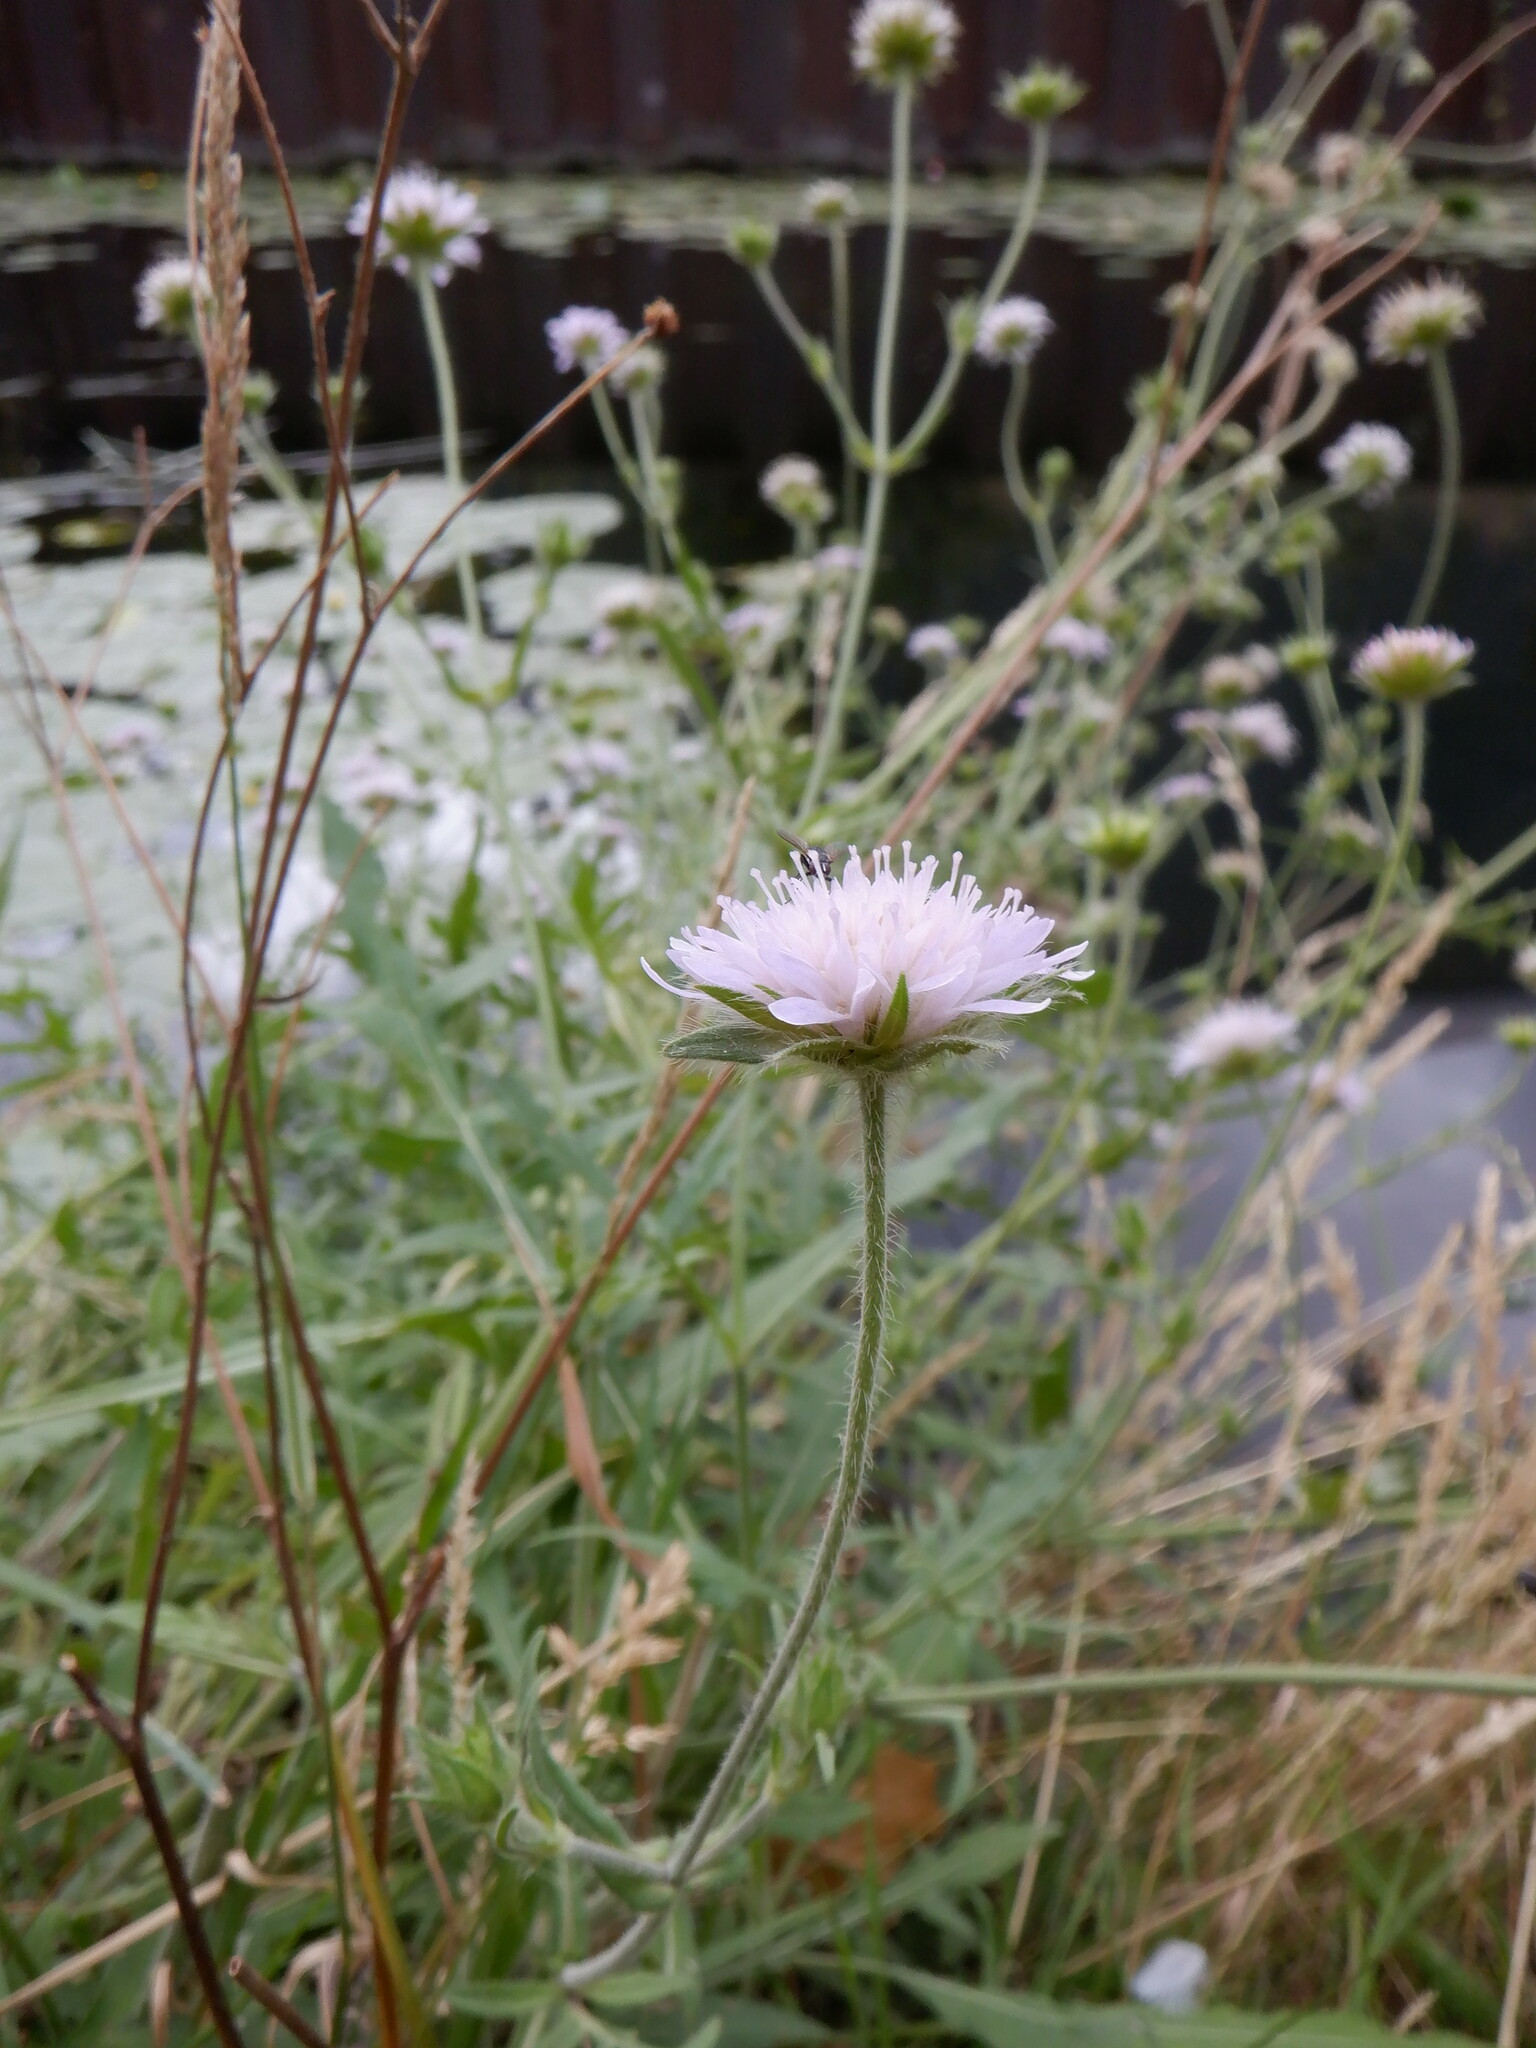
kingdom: Plantae
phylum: Tracheophyta
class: Magnoliopsida
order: Dipsacales
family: Caprifoliaceae
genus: Knautia
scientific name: Knautia arvensis
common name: Field scabiosa
